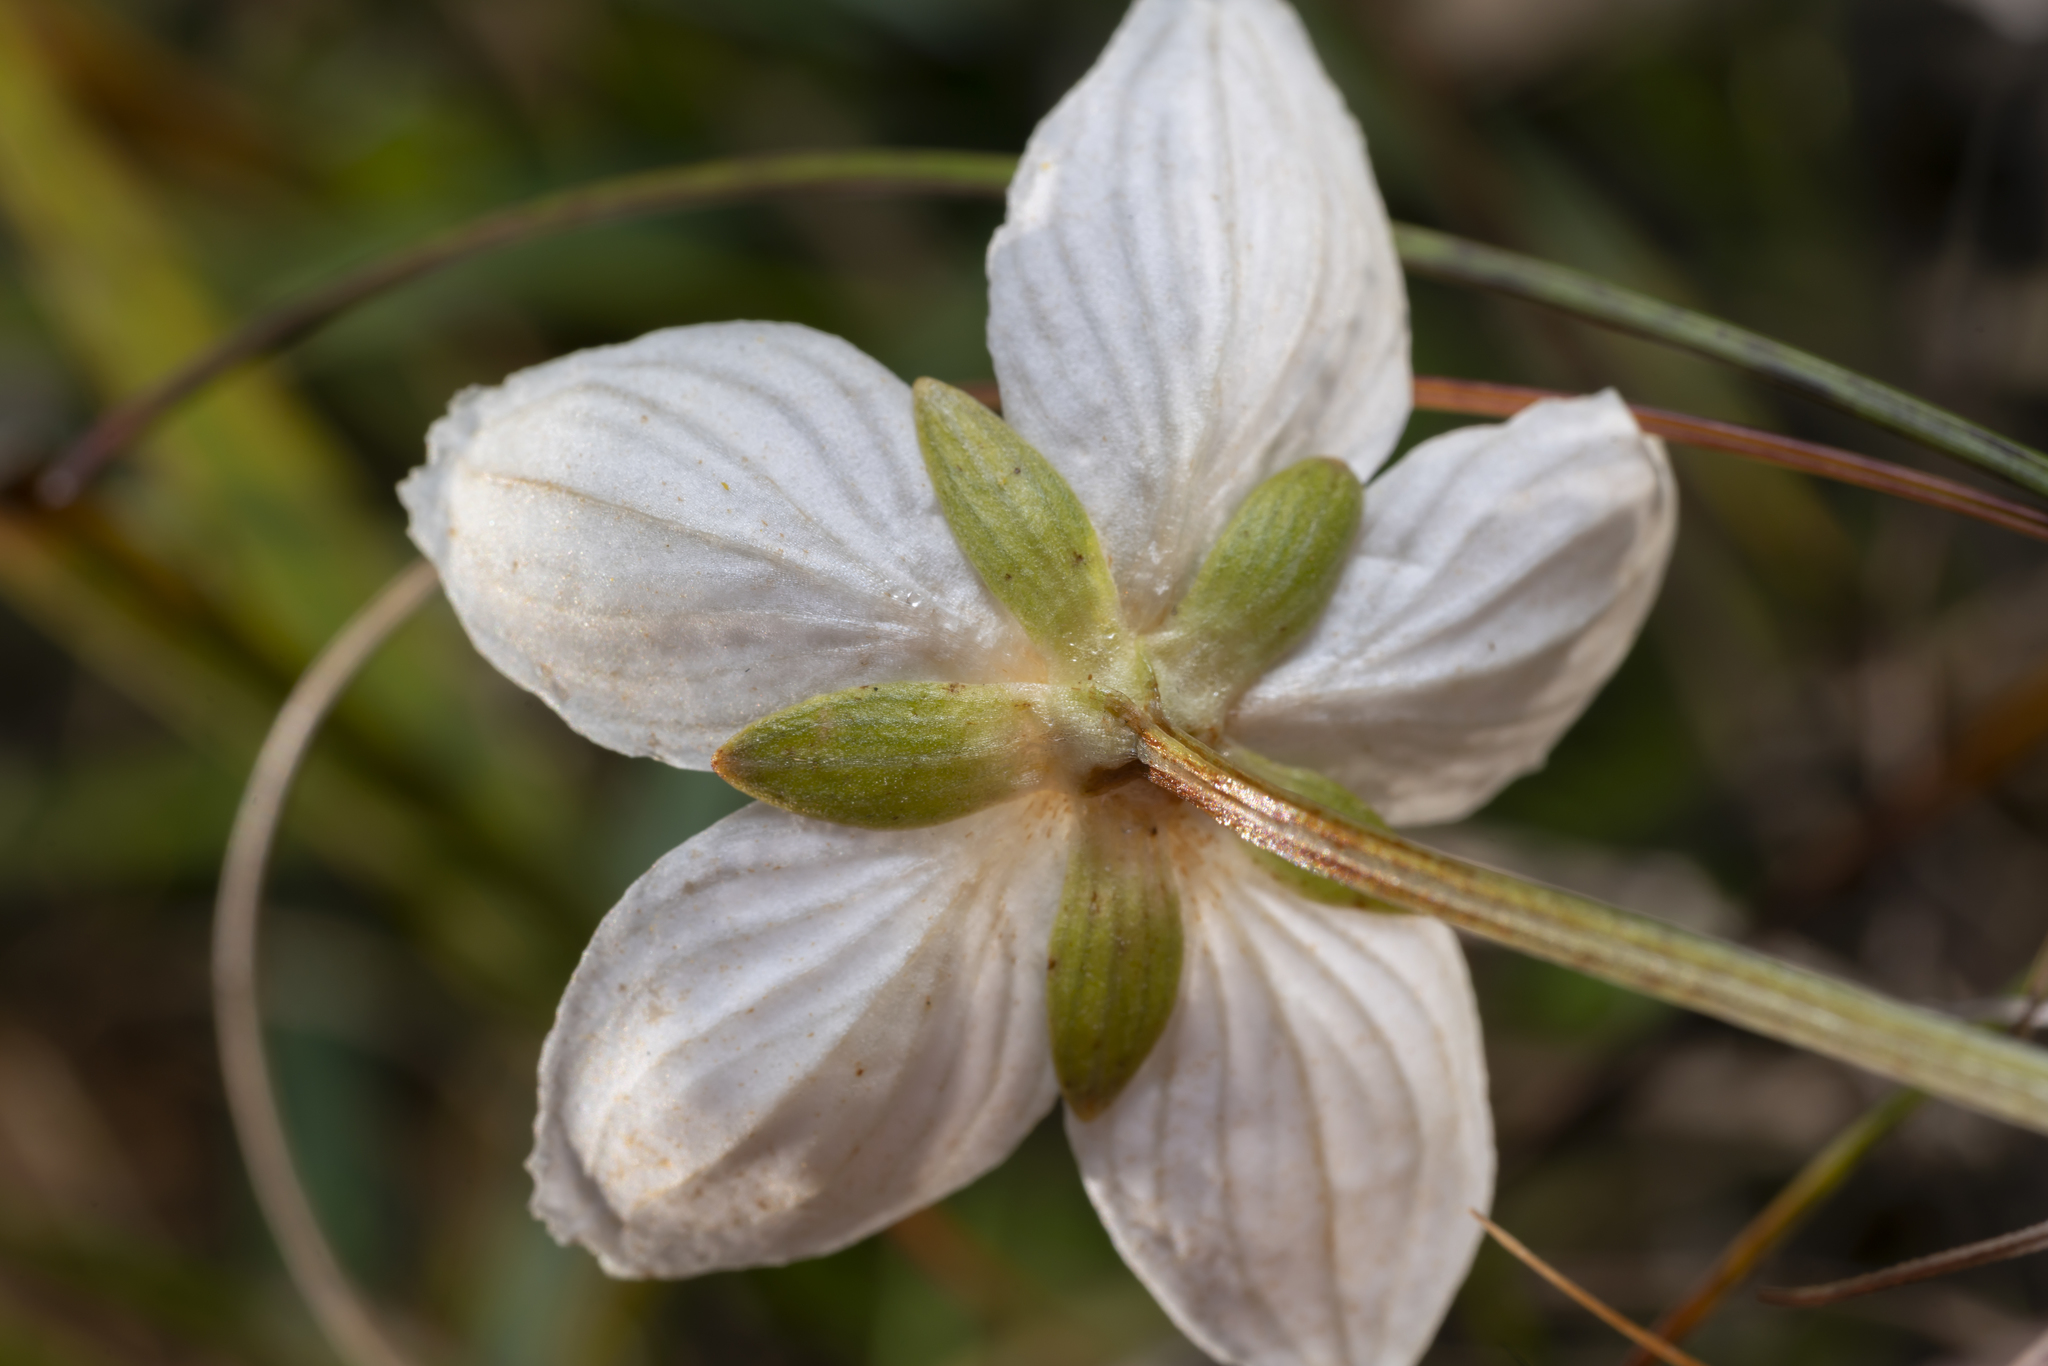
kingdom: Plantae
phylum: Tracheophyta
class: Magnoliopsida
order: Celastrales
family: Parnassiaceae
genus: Parnassia
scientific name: Parnassia palustris
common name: Grass-of-parnassus
